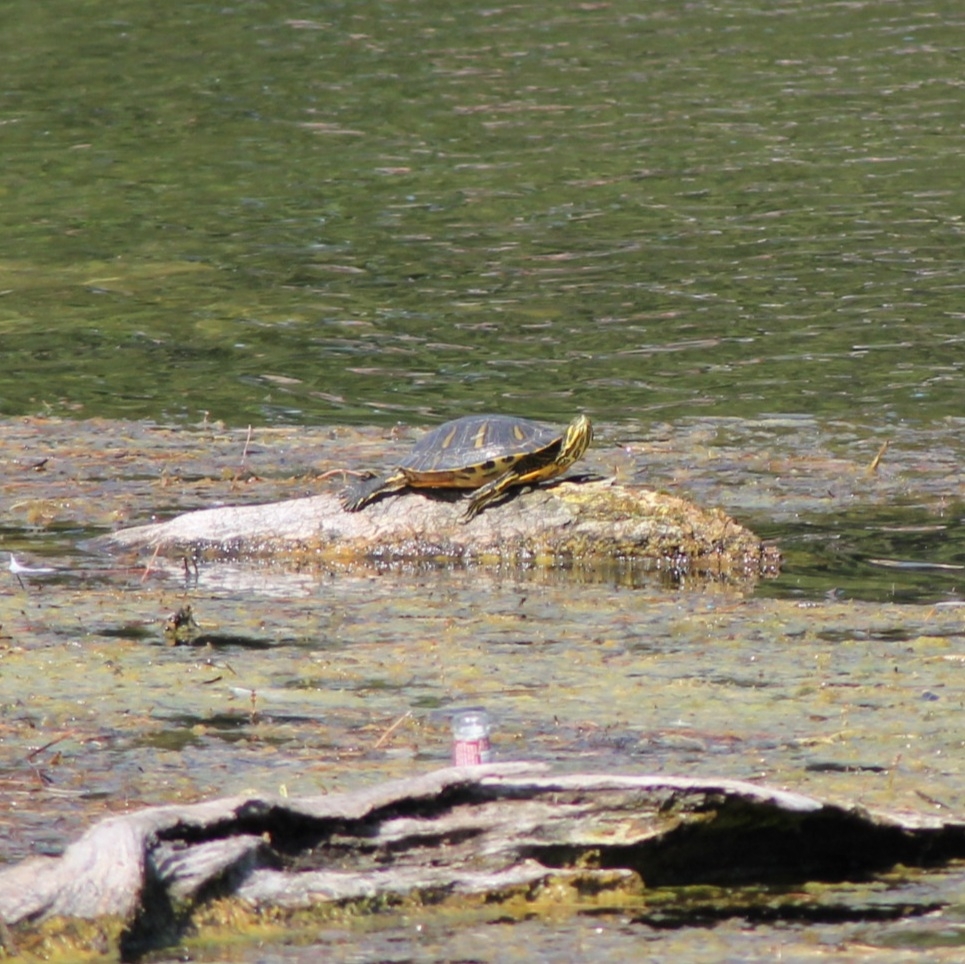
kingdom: Animalia
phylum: Chordata
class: Testudines
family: Emydidae
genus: Trachemys
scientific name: Trachemys scripta
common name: Slider
